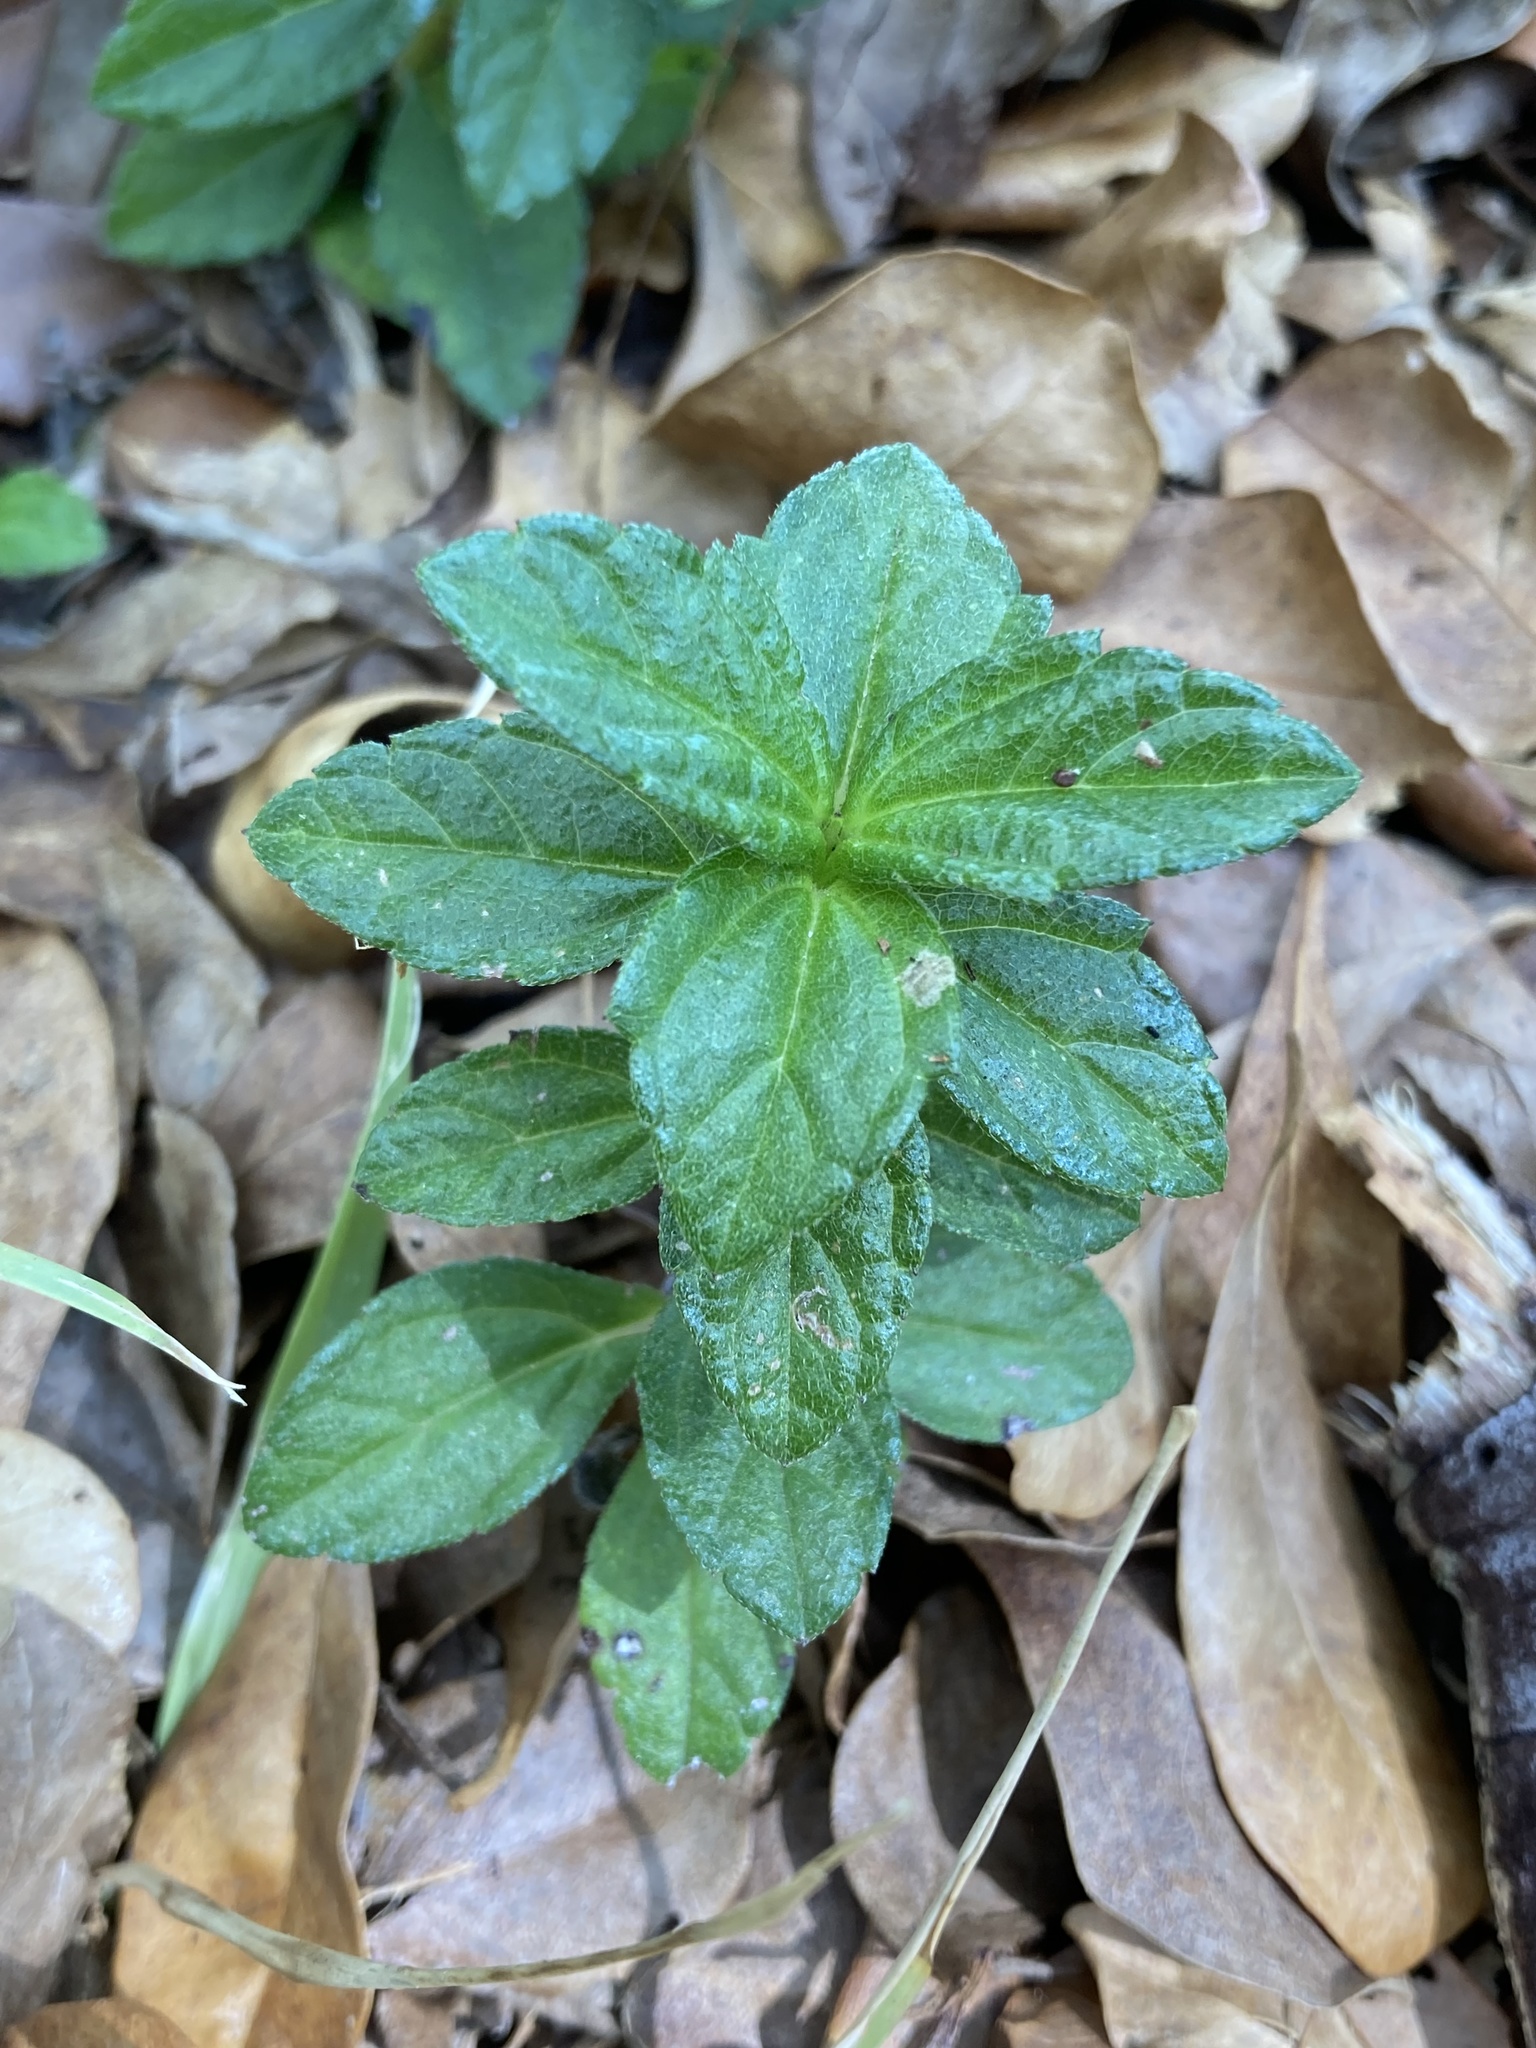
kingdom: Plantae
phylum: Tracheophyta
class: Magnoliopsida
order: Asterales
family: Asteraceae
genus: Sphagneticola
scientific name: Sphagneticola trilobata
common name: Bay biscayne creeping-oxeye
